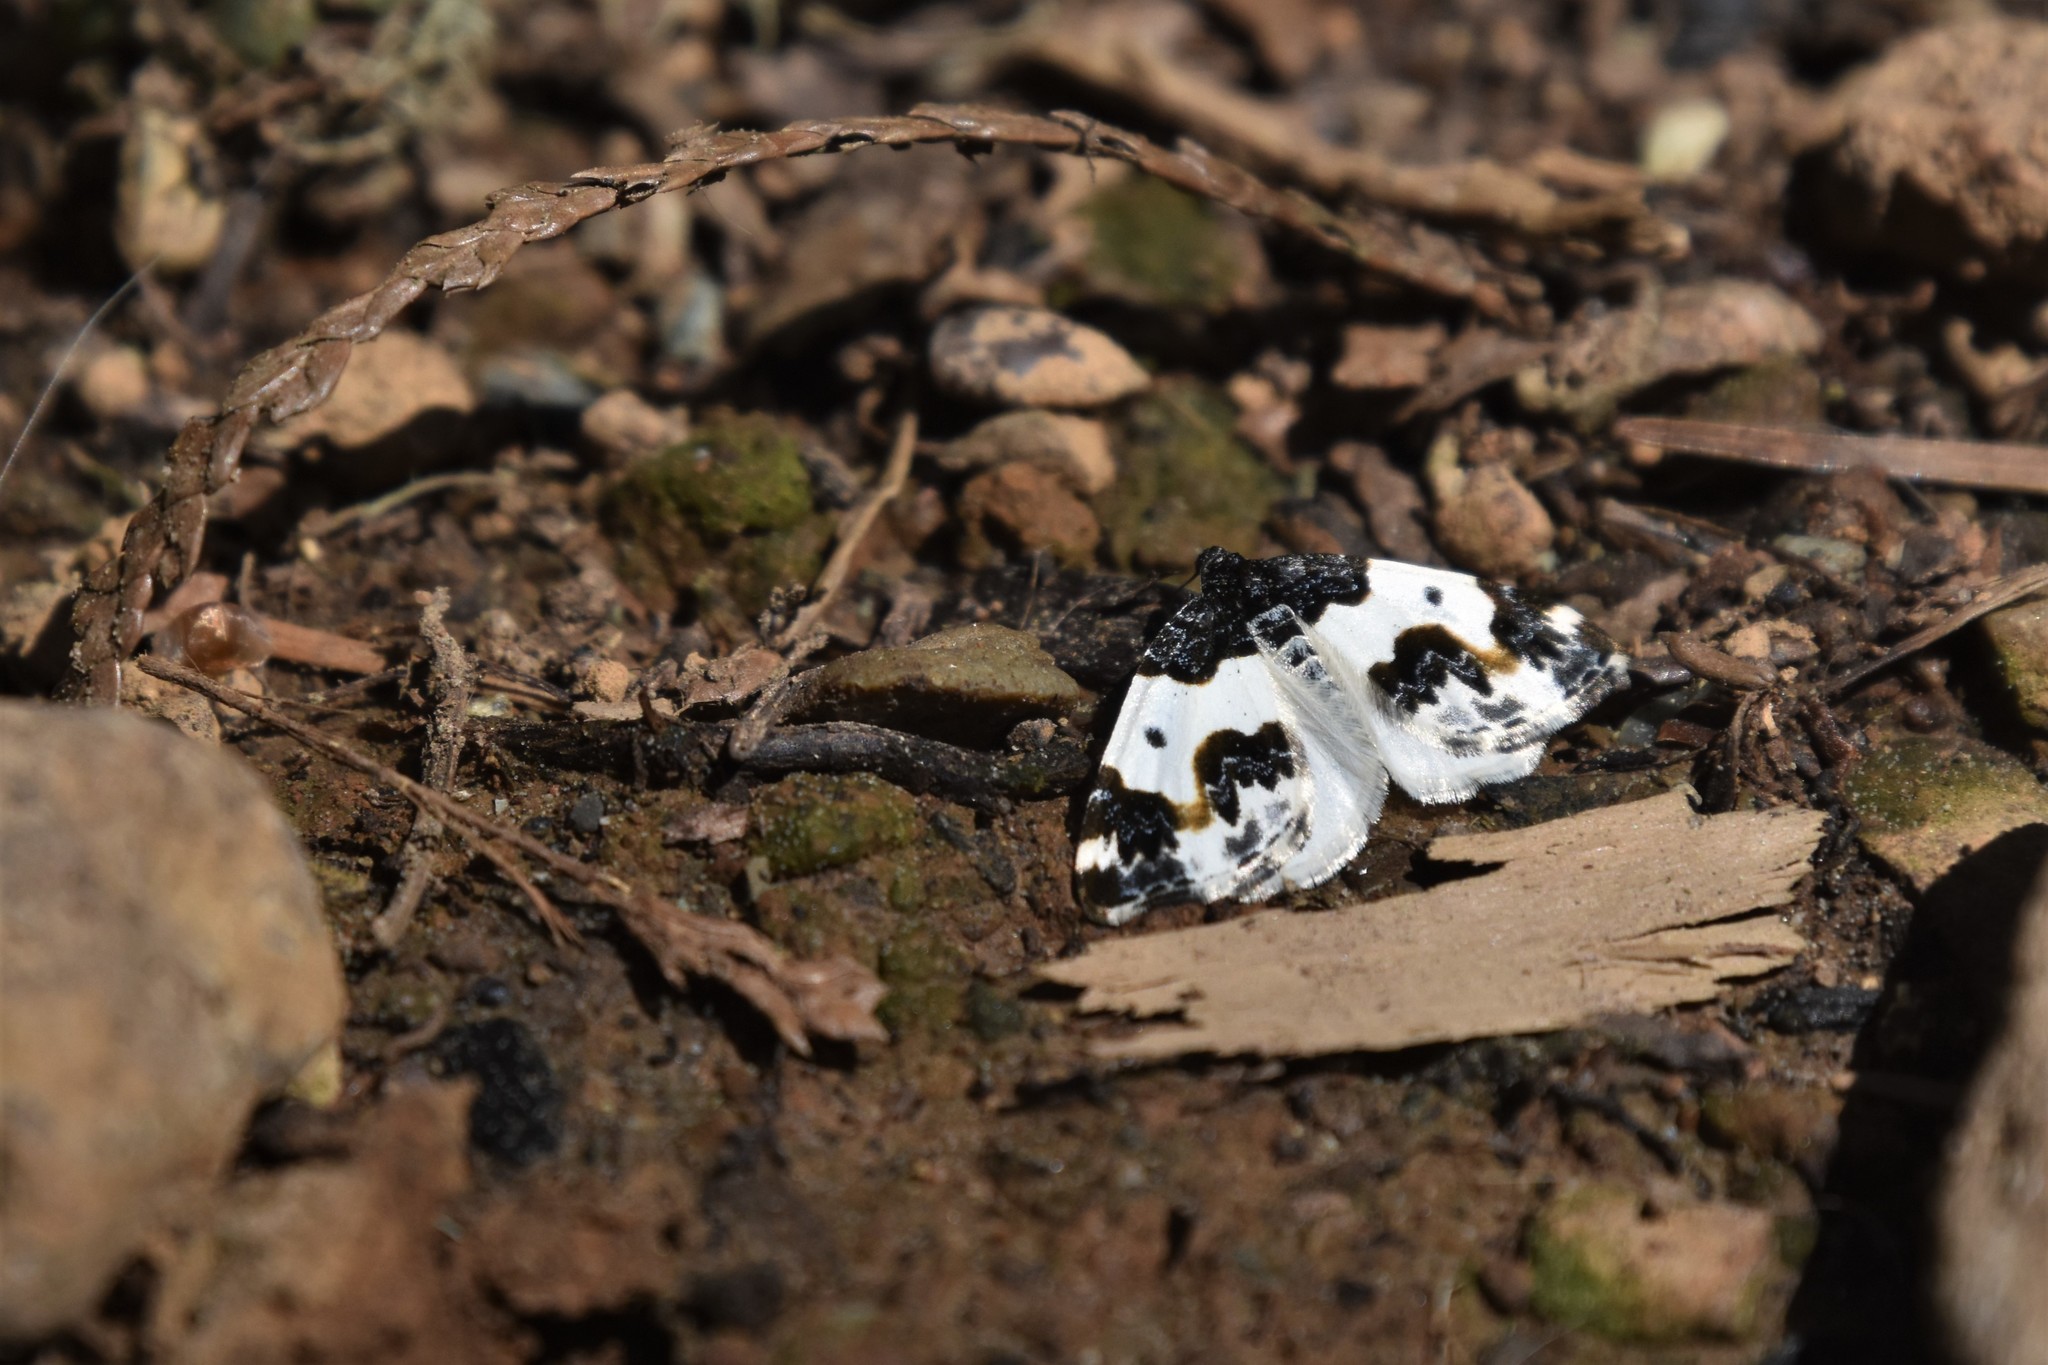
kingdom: Animalia
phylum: Arthropoda
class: Insecta
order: Lepidoptera
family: Geometridae
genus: Mesoleuca
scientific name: Mesoleuca gratulata
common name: Half-white carpet moth
